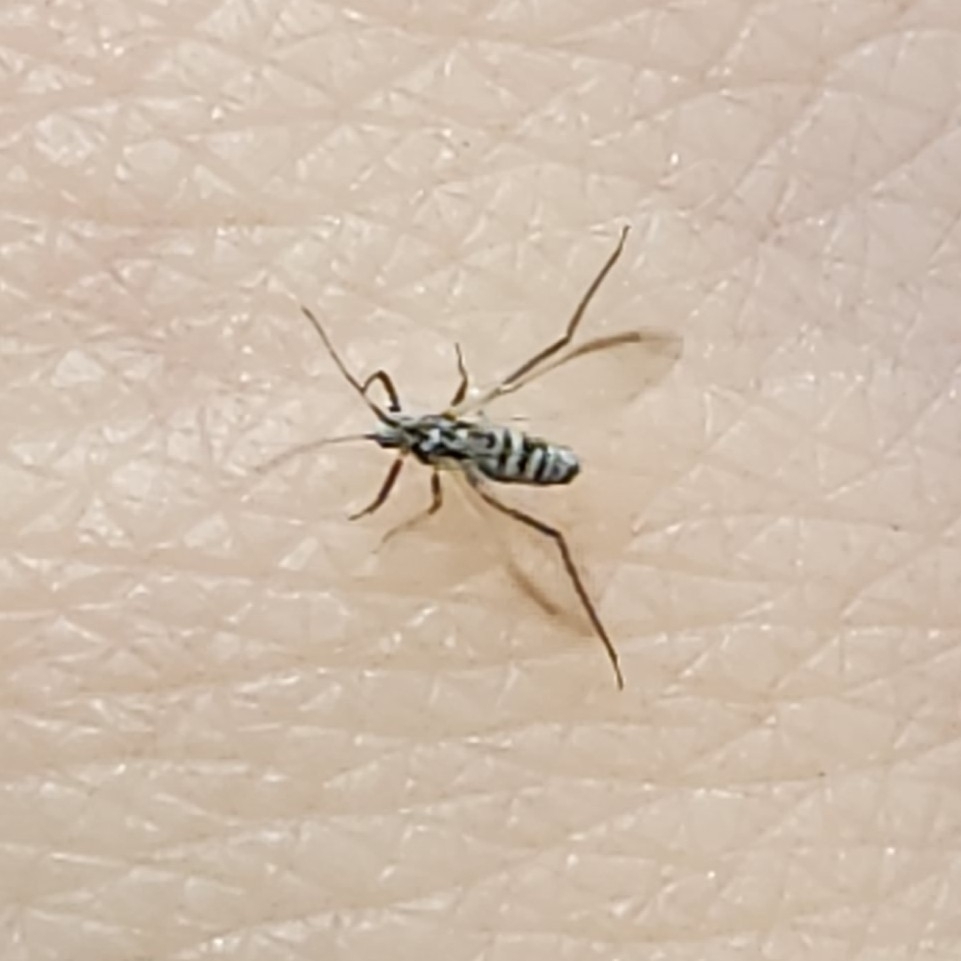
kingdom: Animalia
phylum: Arthropoda
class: Insecta
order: Hemiptera
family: Aphididae
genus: Eulachnus
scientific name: Eulachnus rileyi
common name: Active gray pine needle aphid
